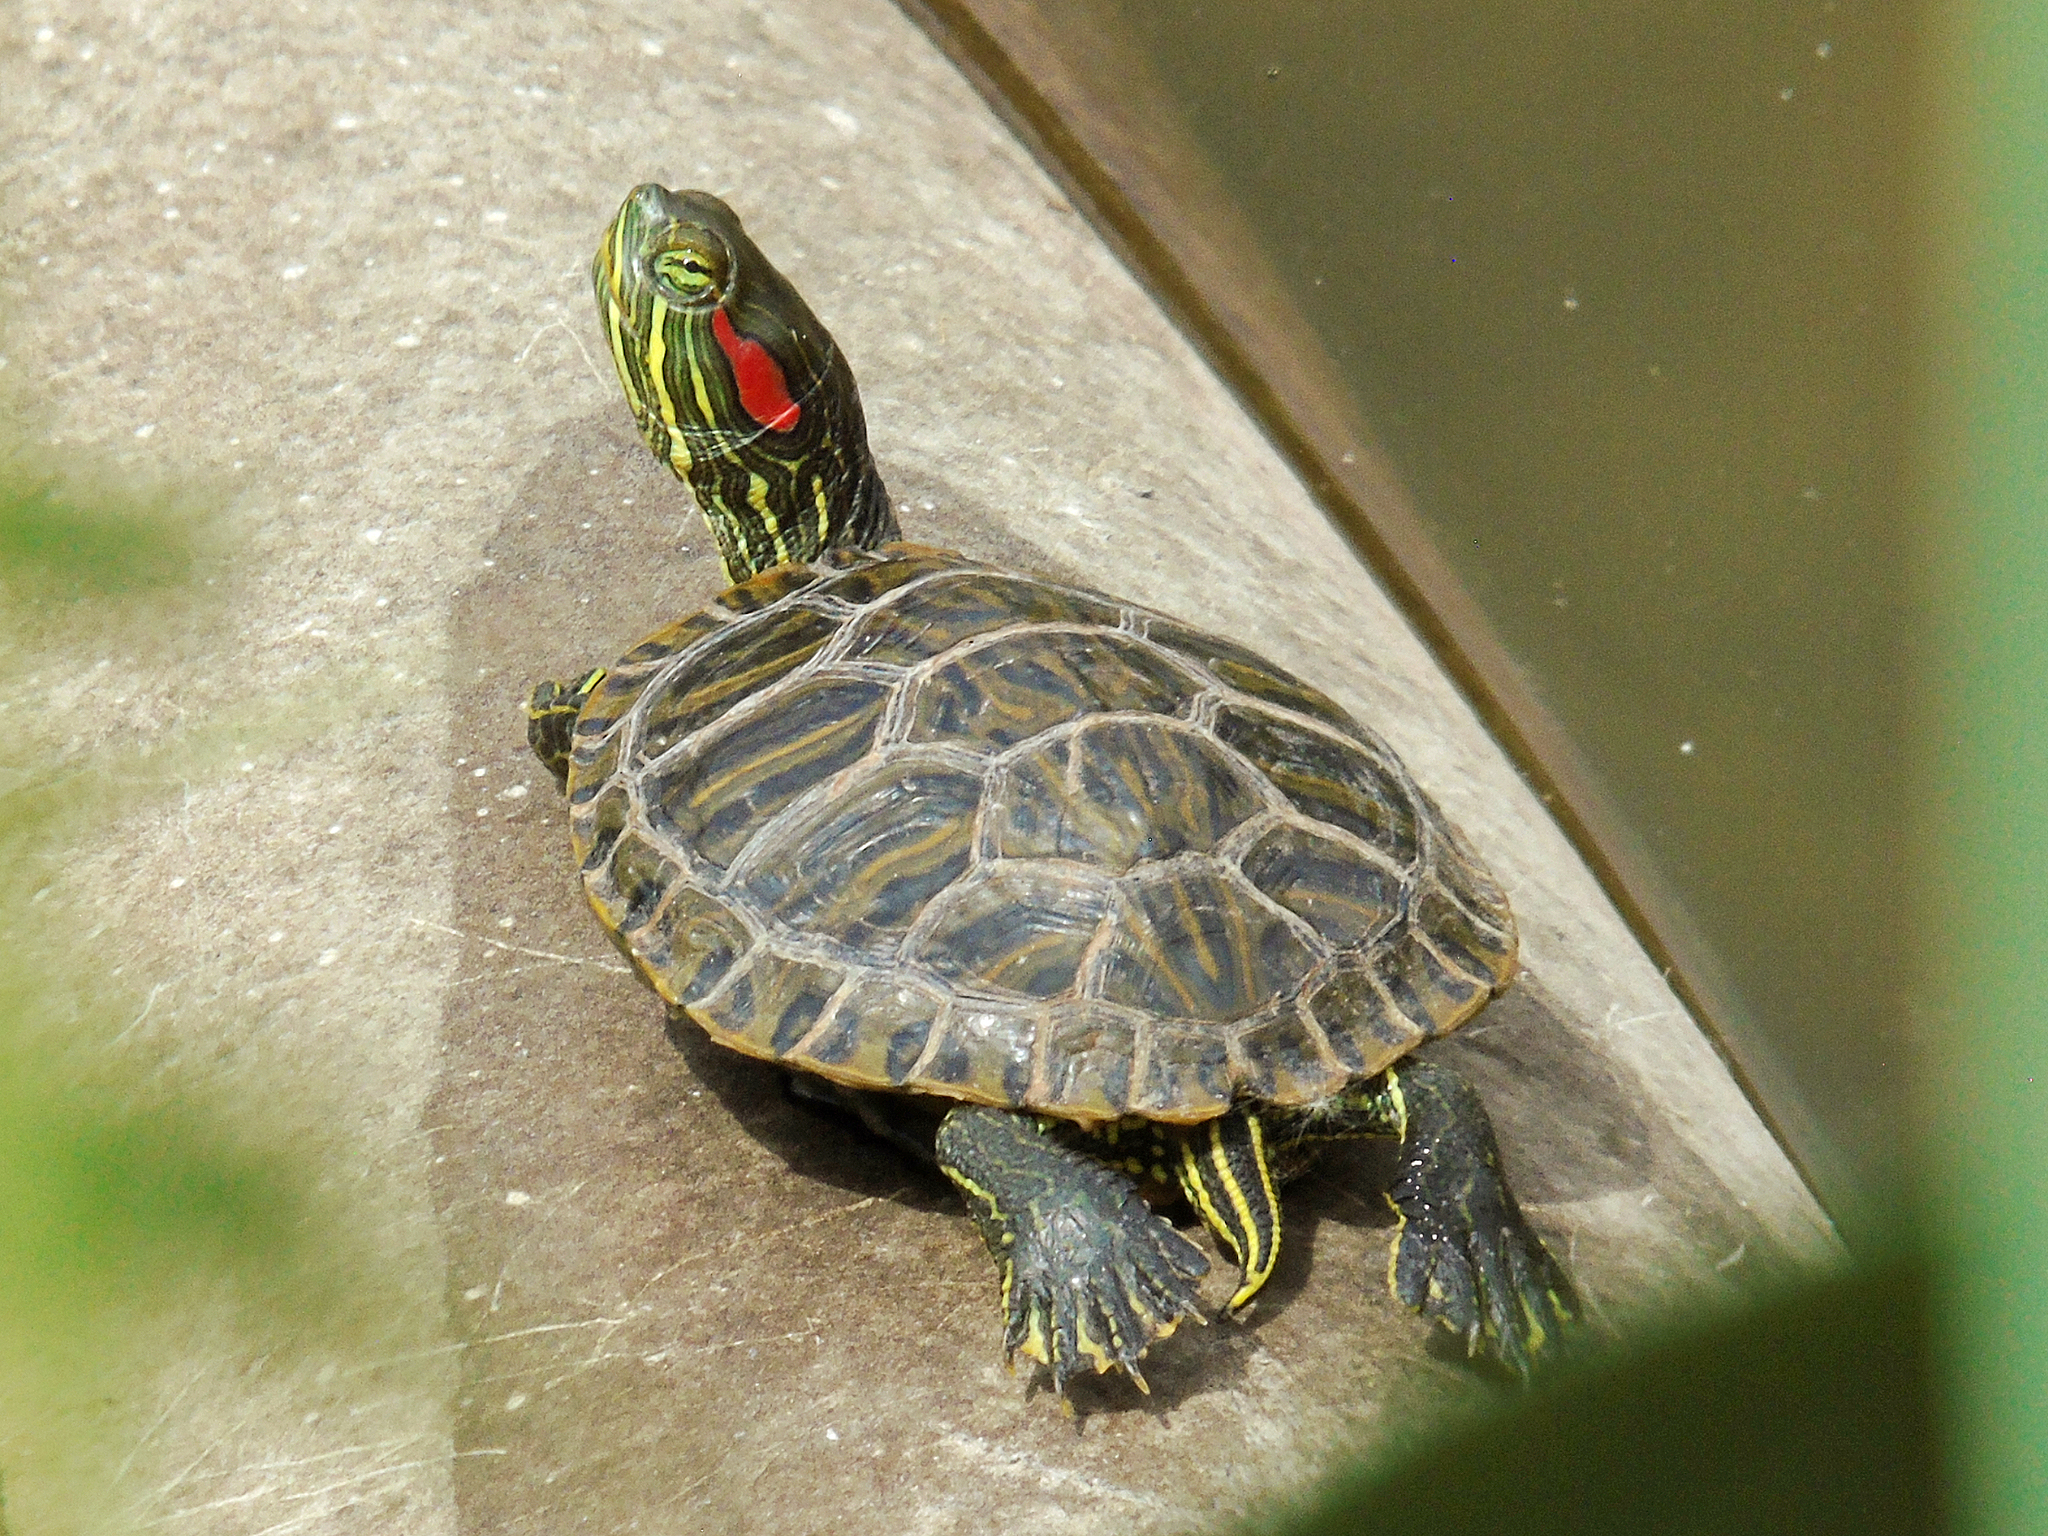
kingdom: Animalia
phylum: Chordata
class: Testudines
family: Emydidae
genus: Trachemys
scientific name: Trachemys scripta
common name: Slider
